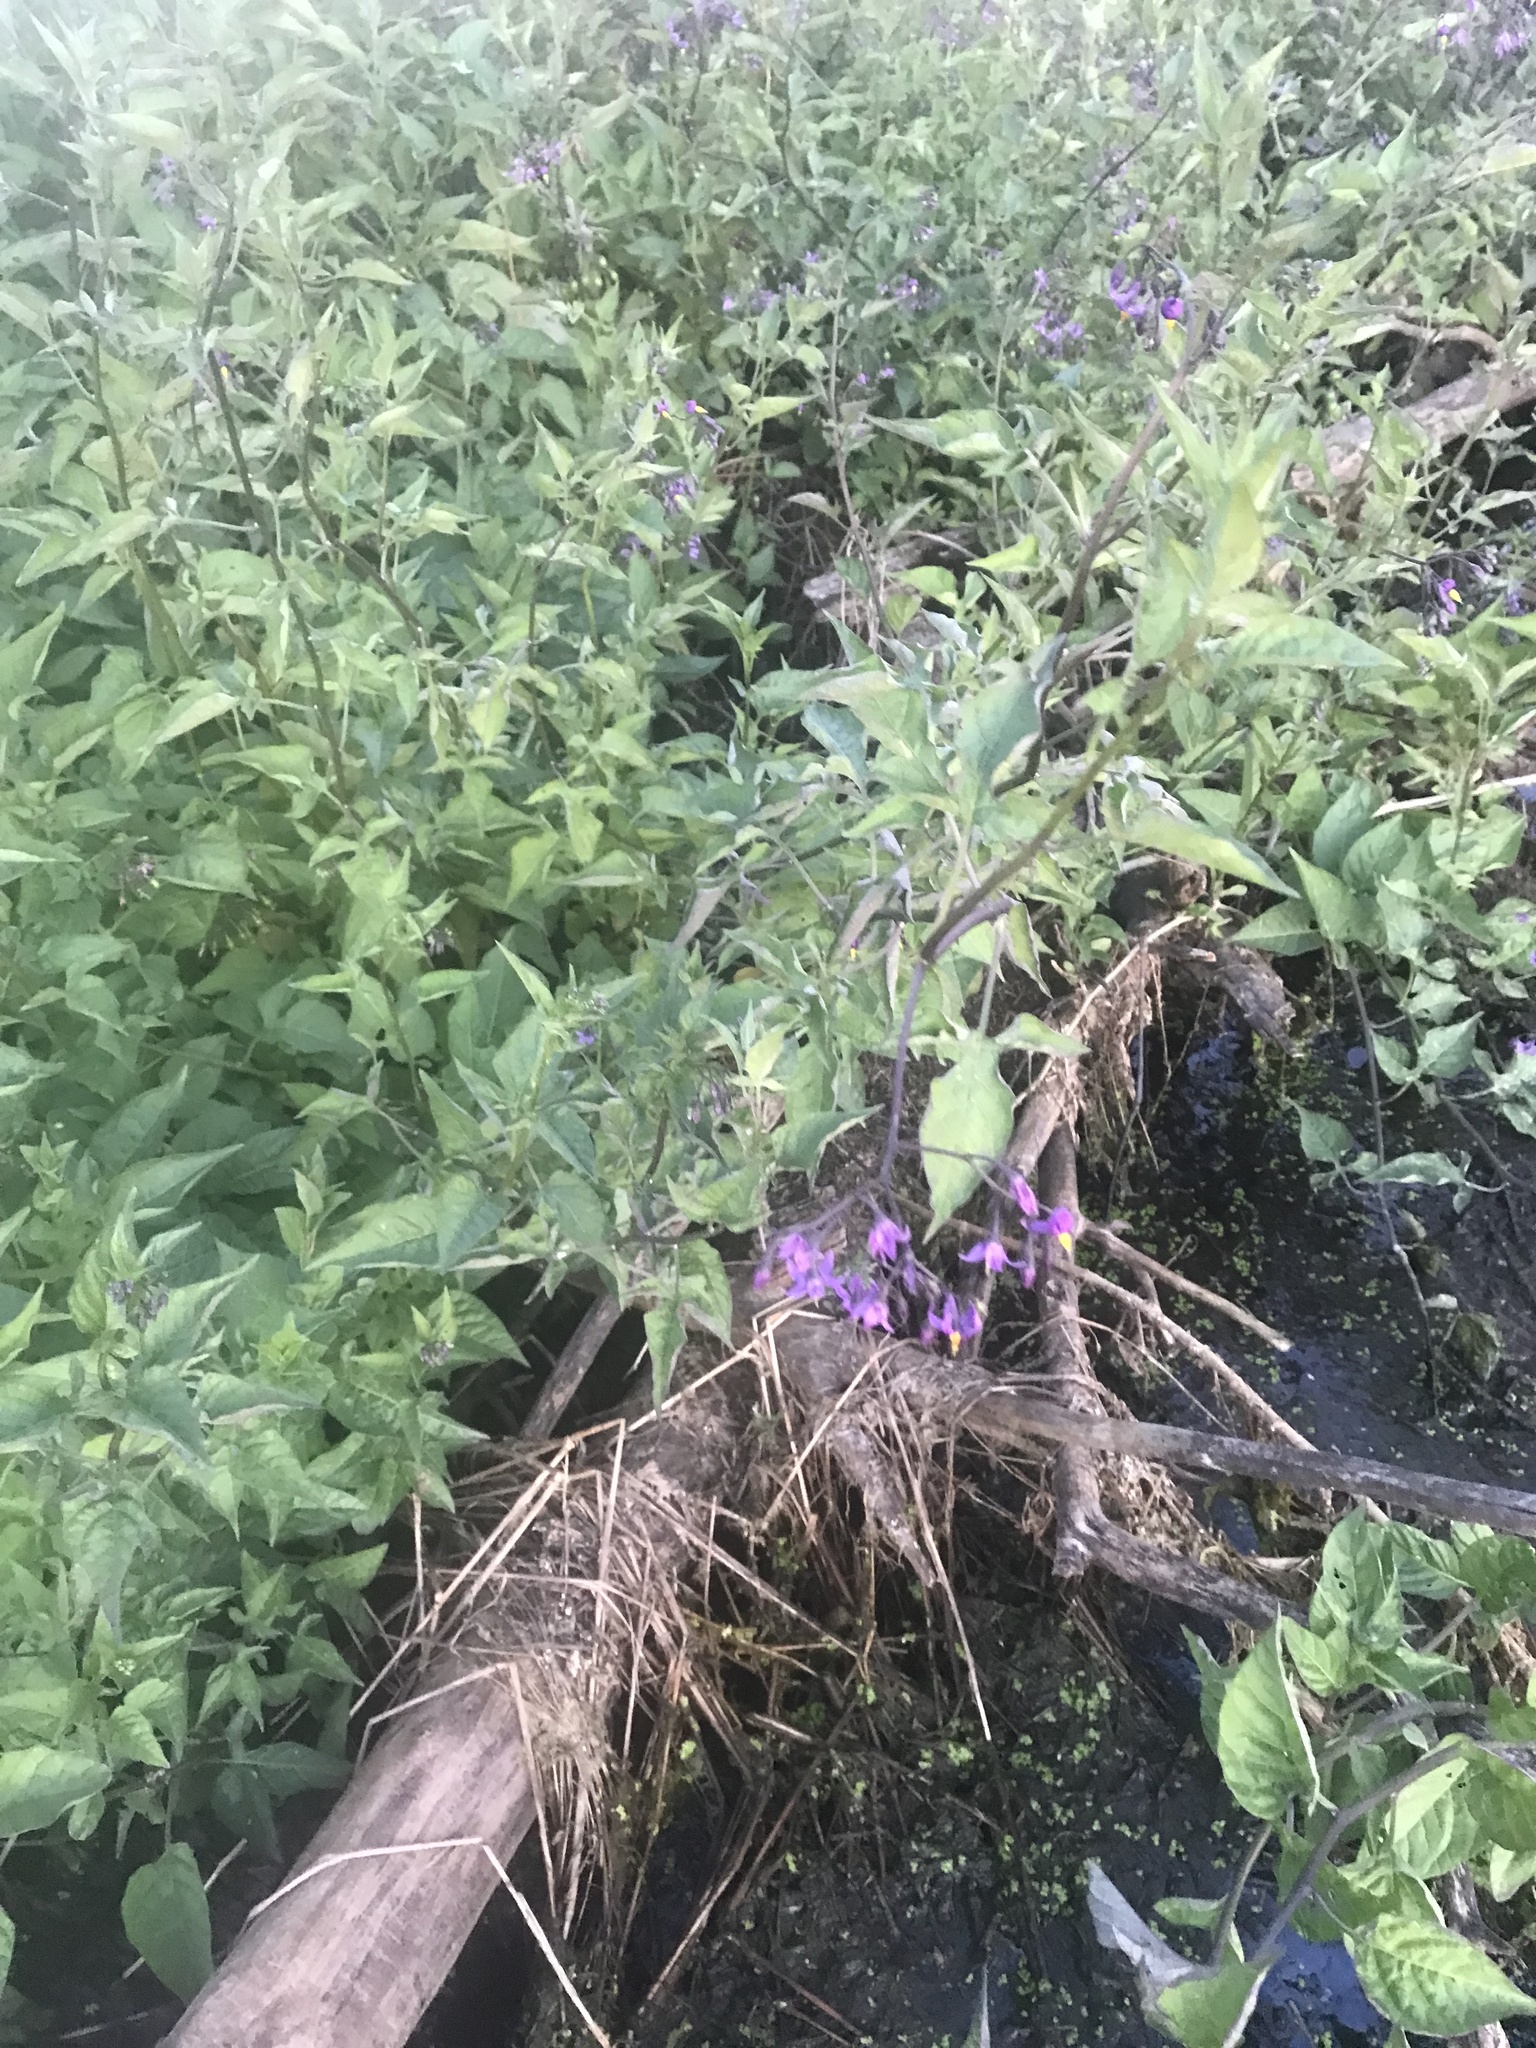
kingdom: Plantae
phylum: Tracheophyta
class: Magnoliopsida
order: Solanales
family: Solanaceae
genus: Solanum
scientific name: Solanum dulcamara
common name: Climbing nightshade
